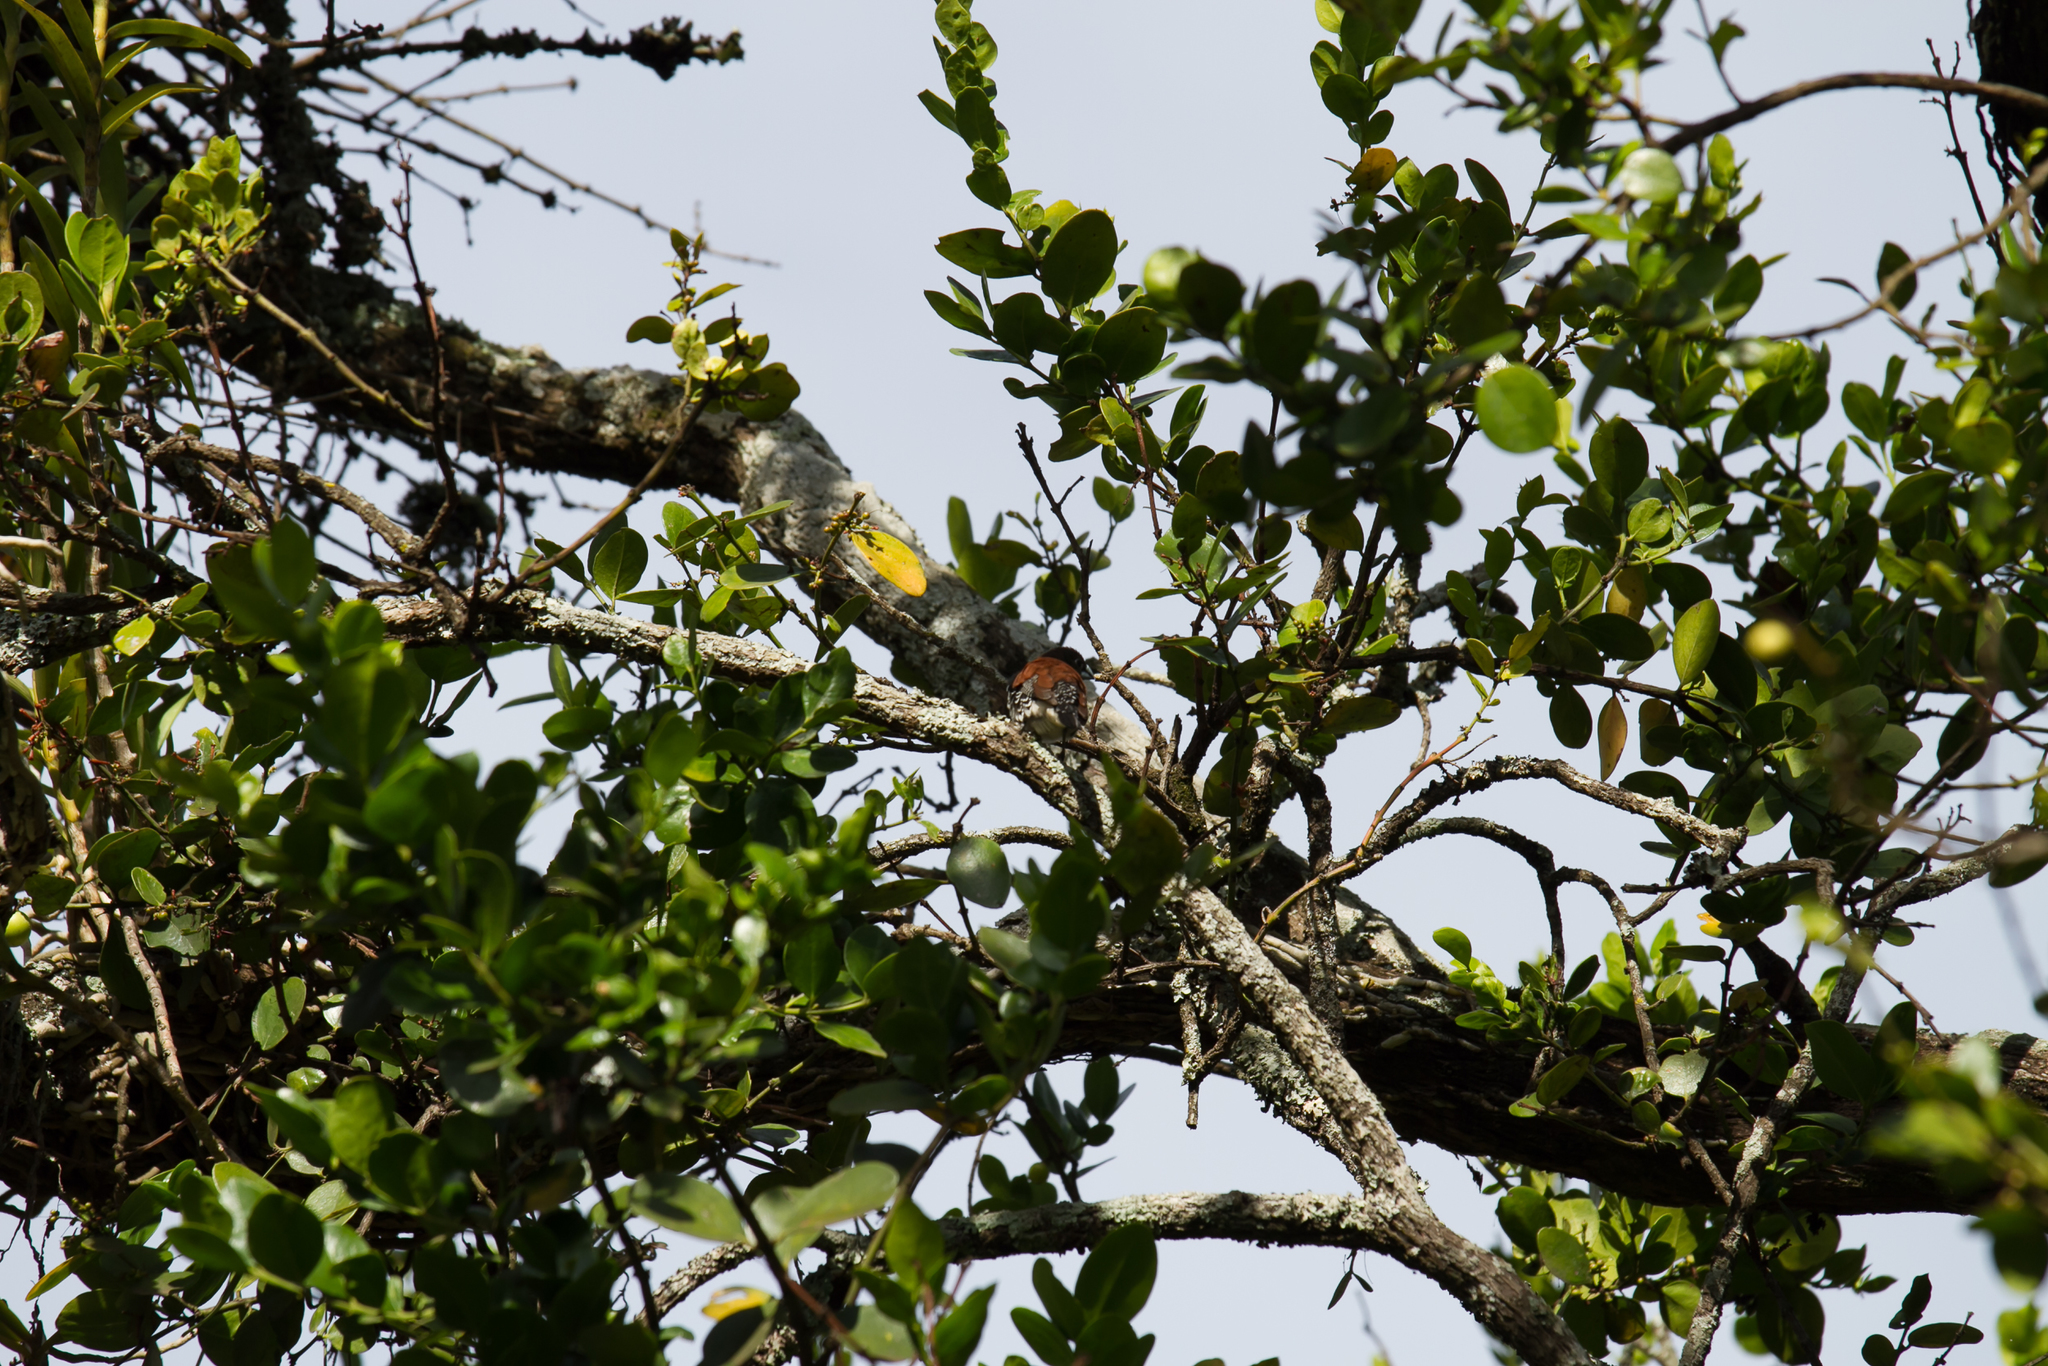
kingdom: Animalia
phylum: Chordata
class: Aves
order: Passeriformes
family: Estrildidae
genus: Lonchura
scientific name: Lonchura nigriceps
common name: Red-backed mannikin
